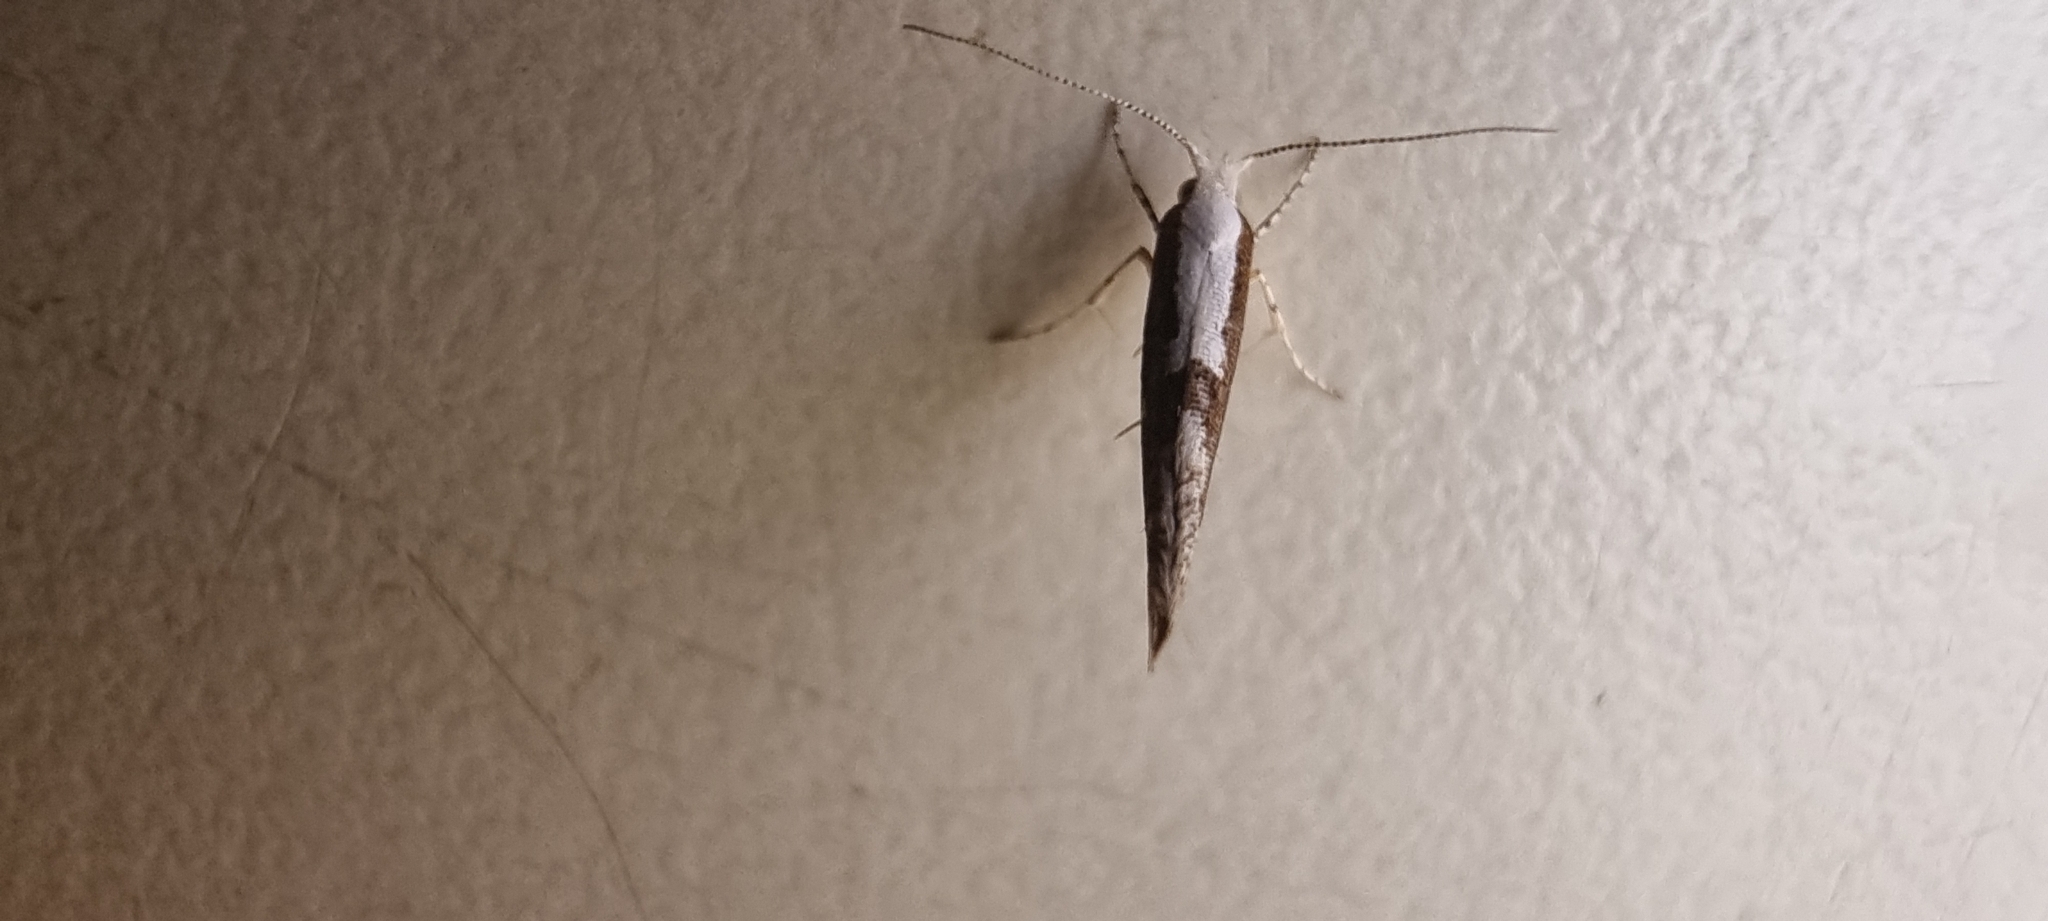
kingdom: Animalia
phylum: Arthropoda
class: Insecta
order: Lepidoptera
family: Argyresthiidae
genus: Argyresthia
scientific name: Argyresthia pruniella
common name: Cherry fruit moth
